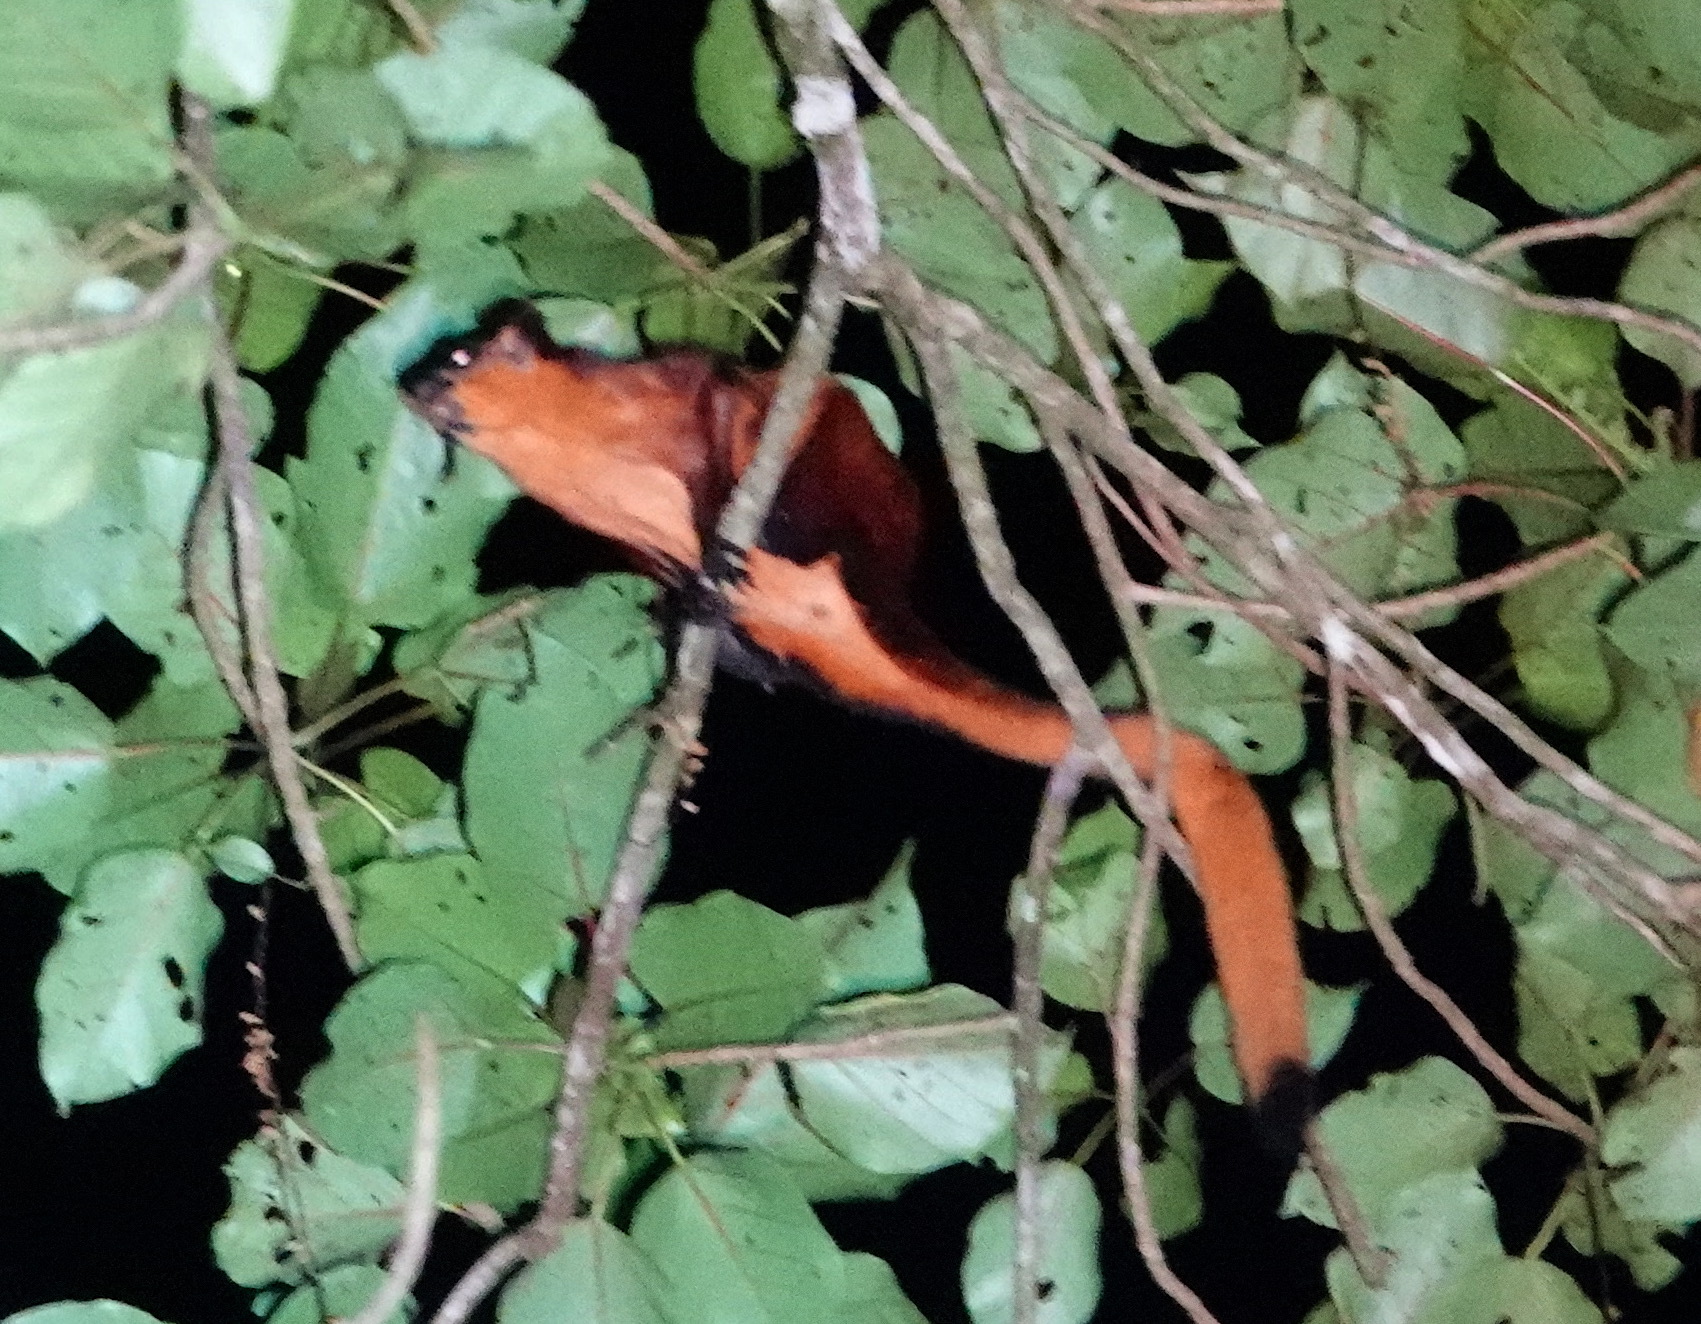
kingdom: Animalia
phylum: Chordata
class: Mammalia
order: Rodentia
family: Sciuridae
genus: Petaurista
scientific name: Petaurista petaurista
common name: Red giant flying squirrel
